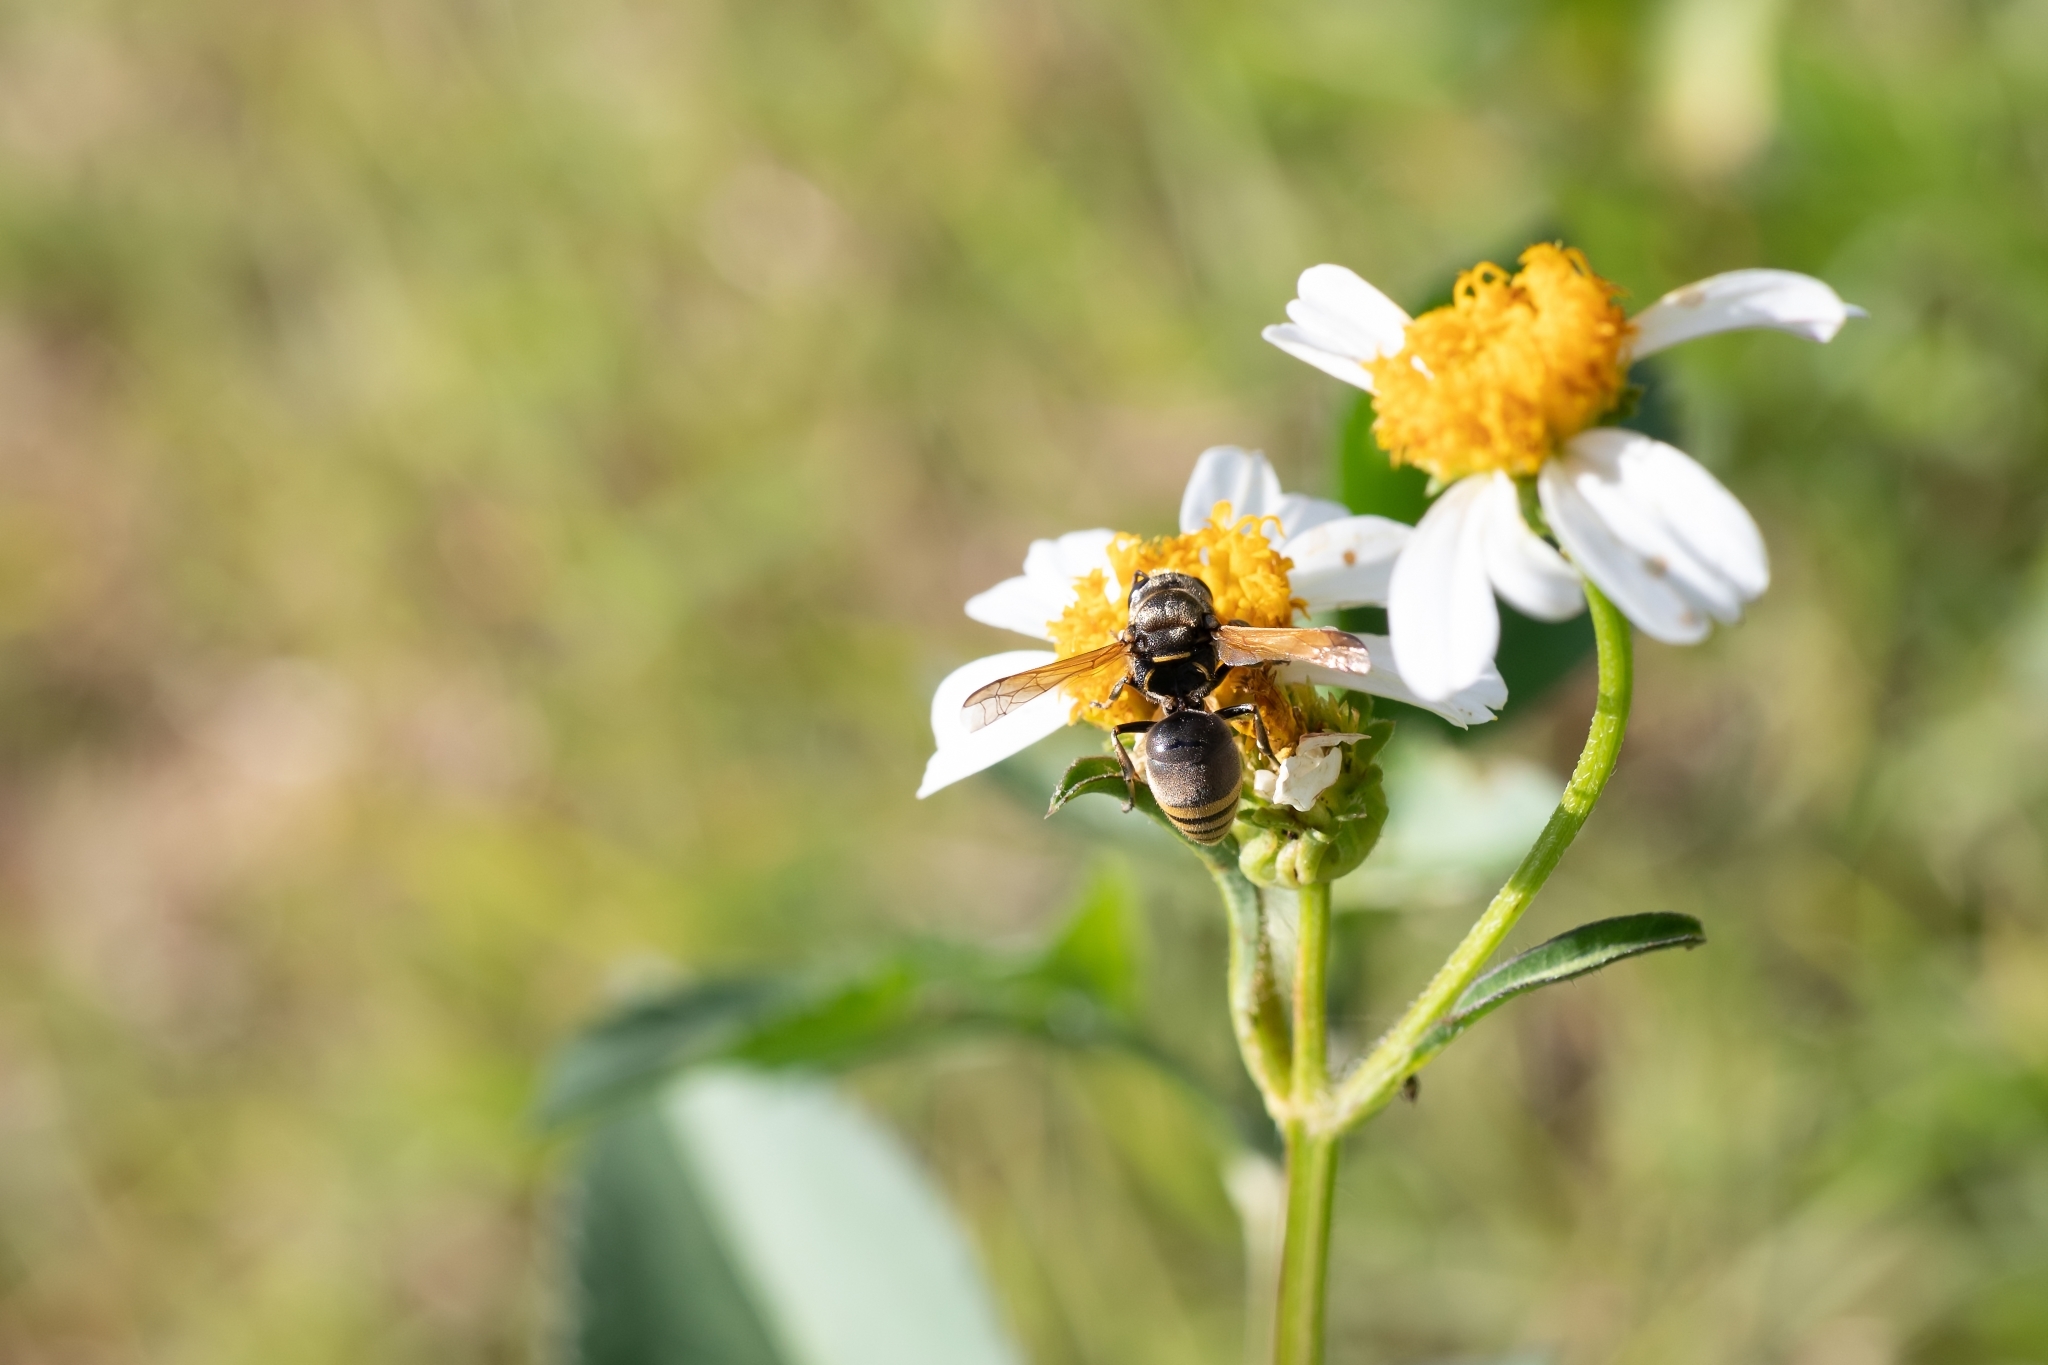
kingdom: Animalia
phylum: Arthropoda
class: Insecta
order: Hymenoptera
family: Eumenidae
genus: Pachodynerus
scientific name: Pachodynerus nasidens
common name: Key hole wasp
